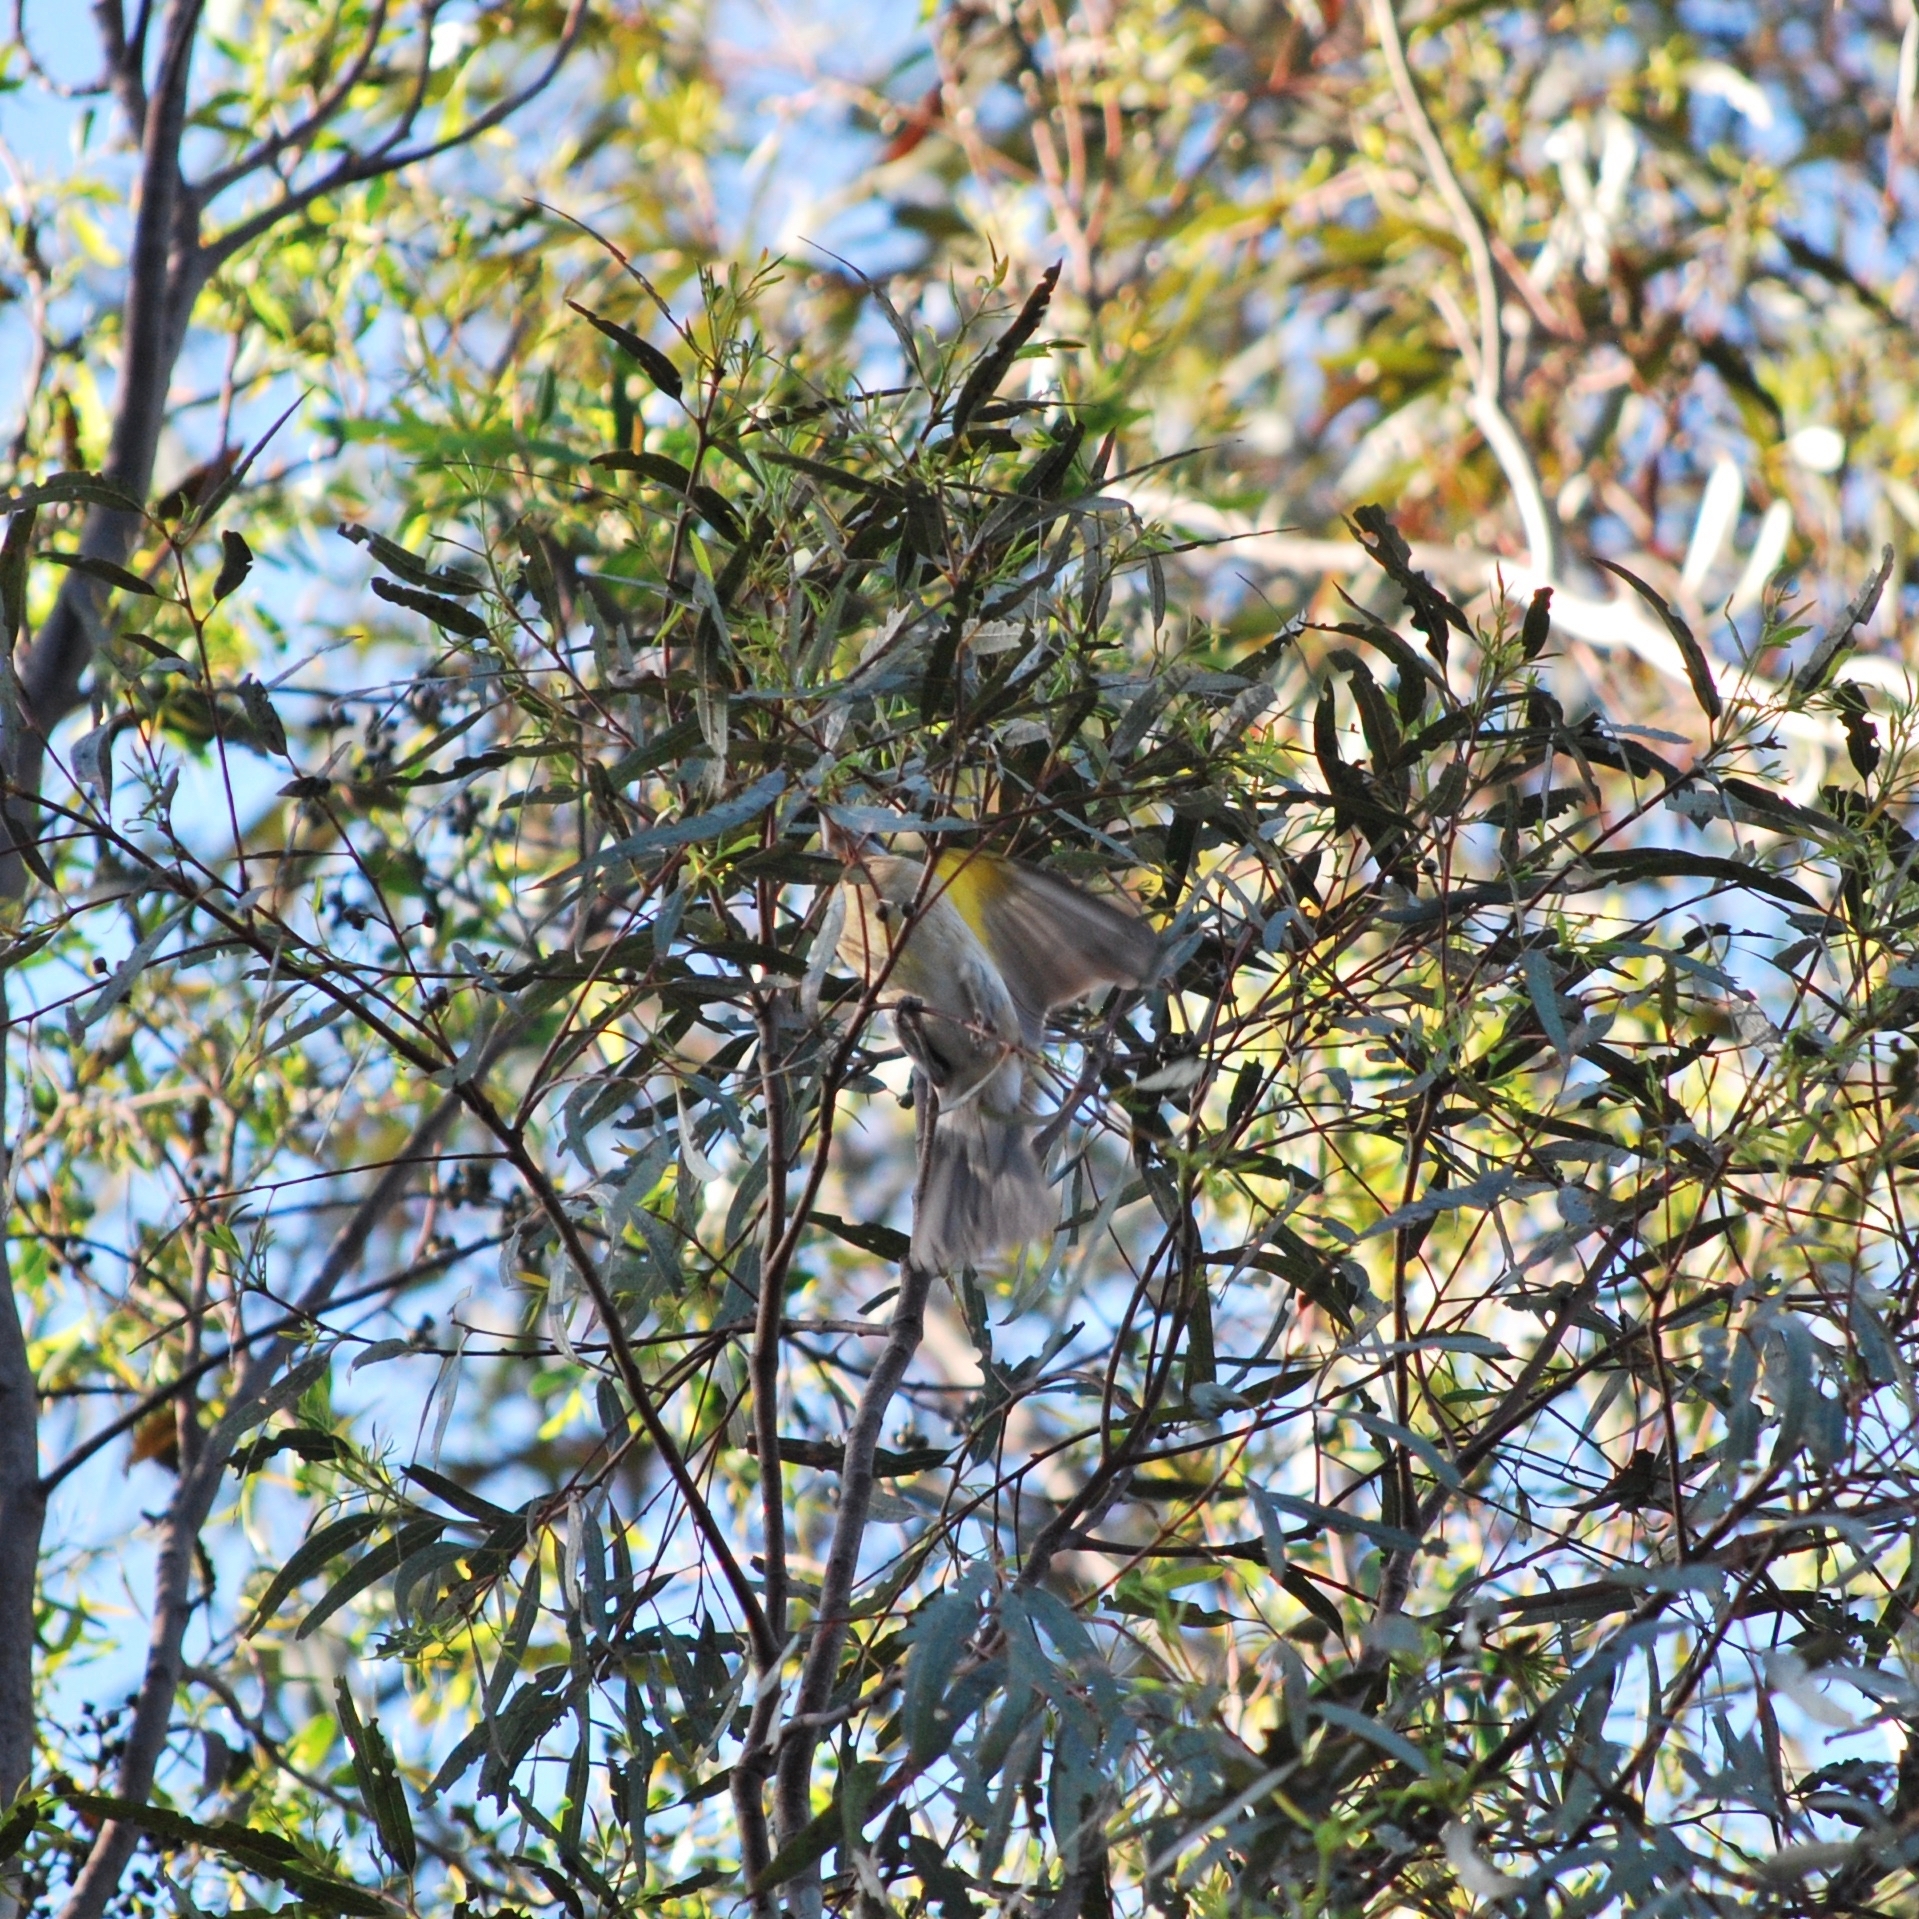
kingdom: Animalia
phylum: Chordata
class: Aves
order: Passeriformes
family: Cardinalidae
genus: Pheucticus
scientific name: Pheucticus melanocephalus
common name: Black-headed grosbeak
